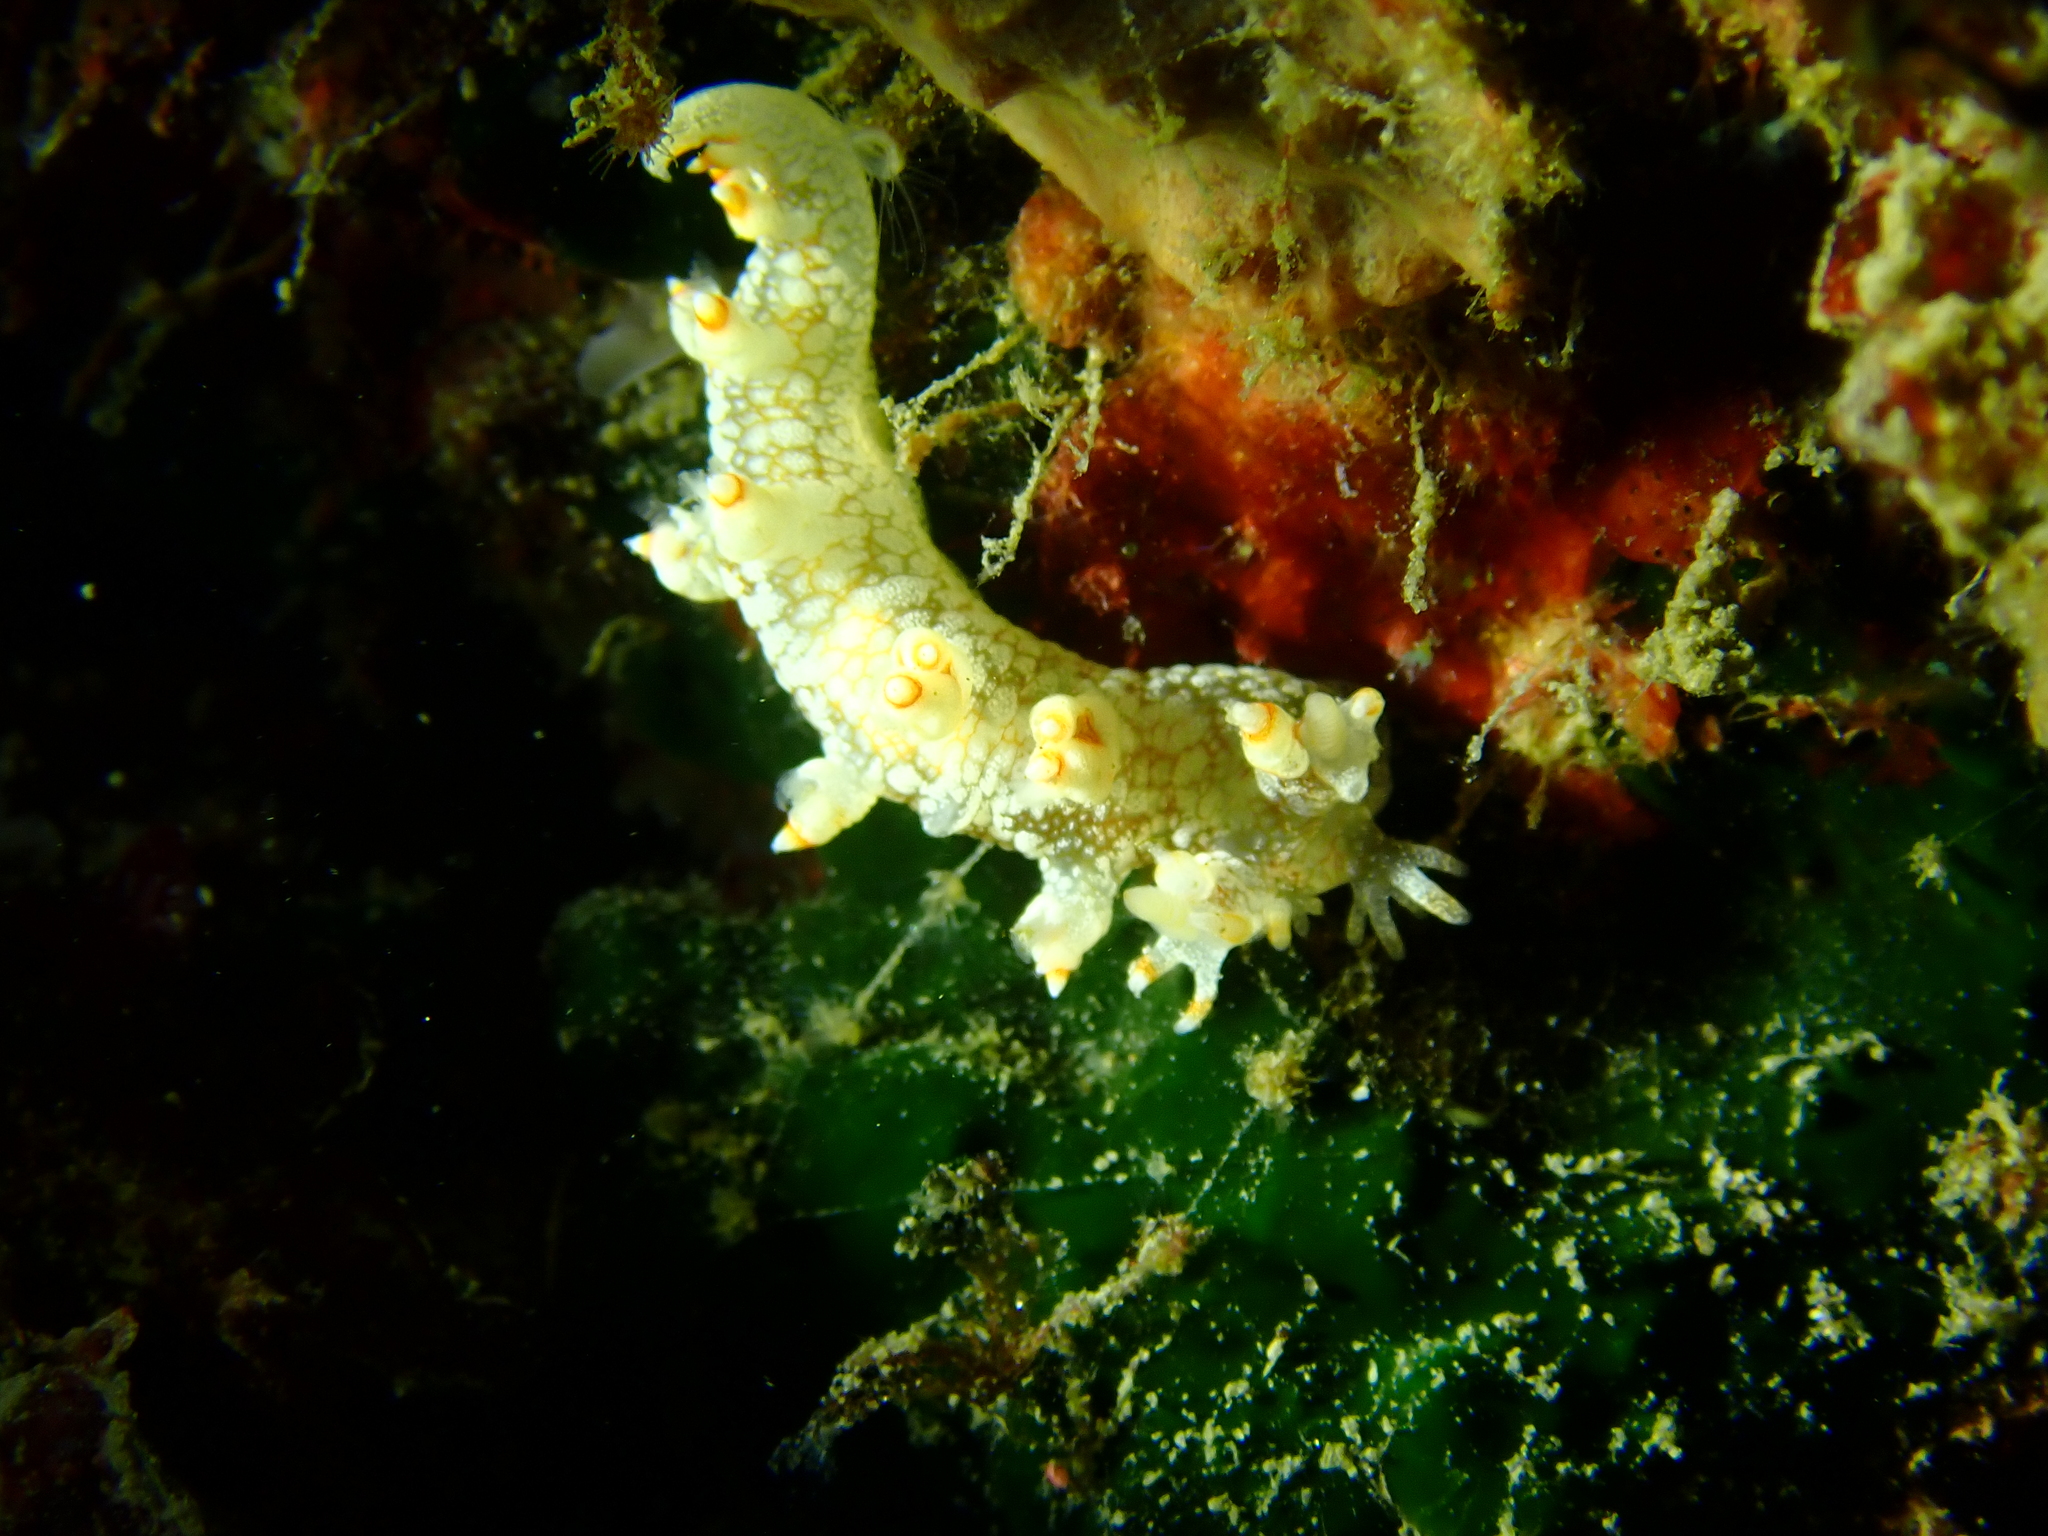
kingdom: Animalia
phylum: Mollusca
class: Gastropoda
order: Nudibranchia
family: Bornellidae
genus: Bornella
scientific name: Bornella stellifera
